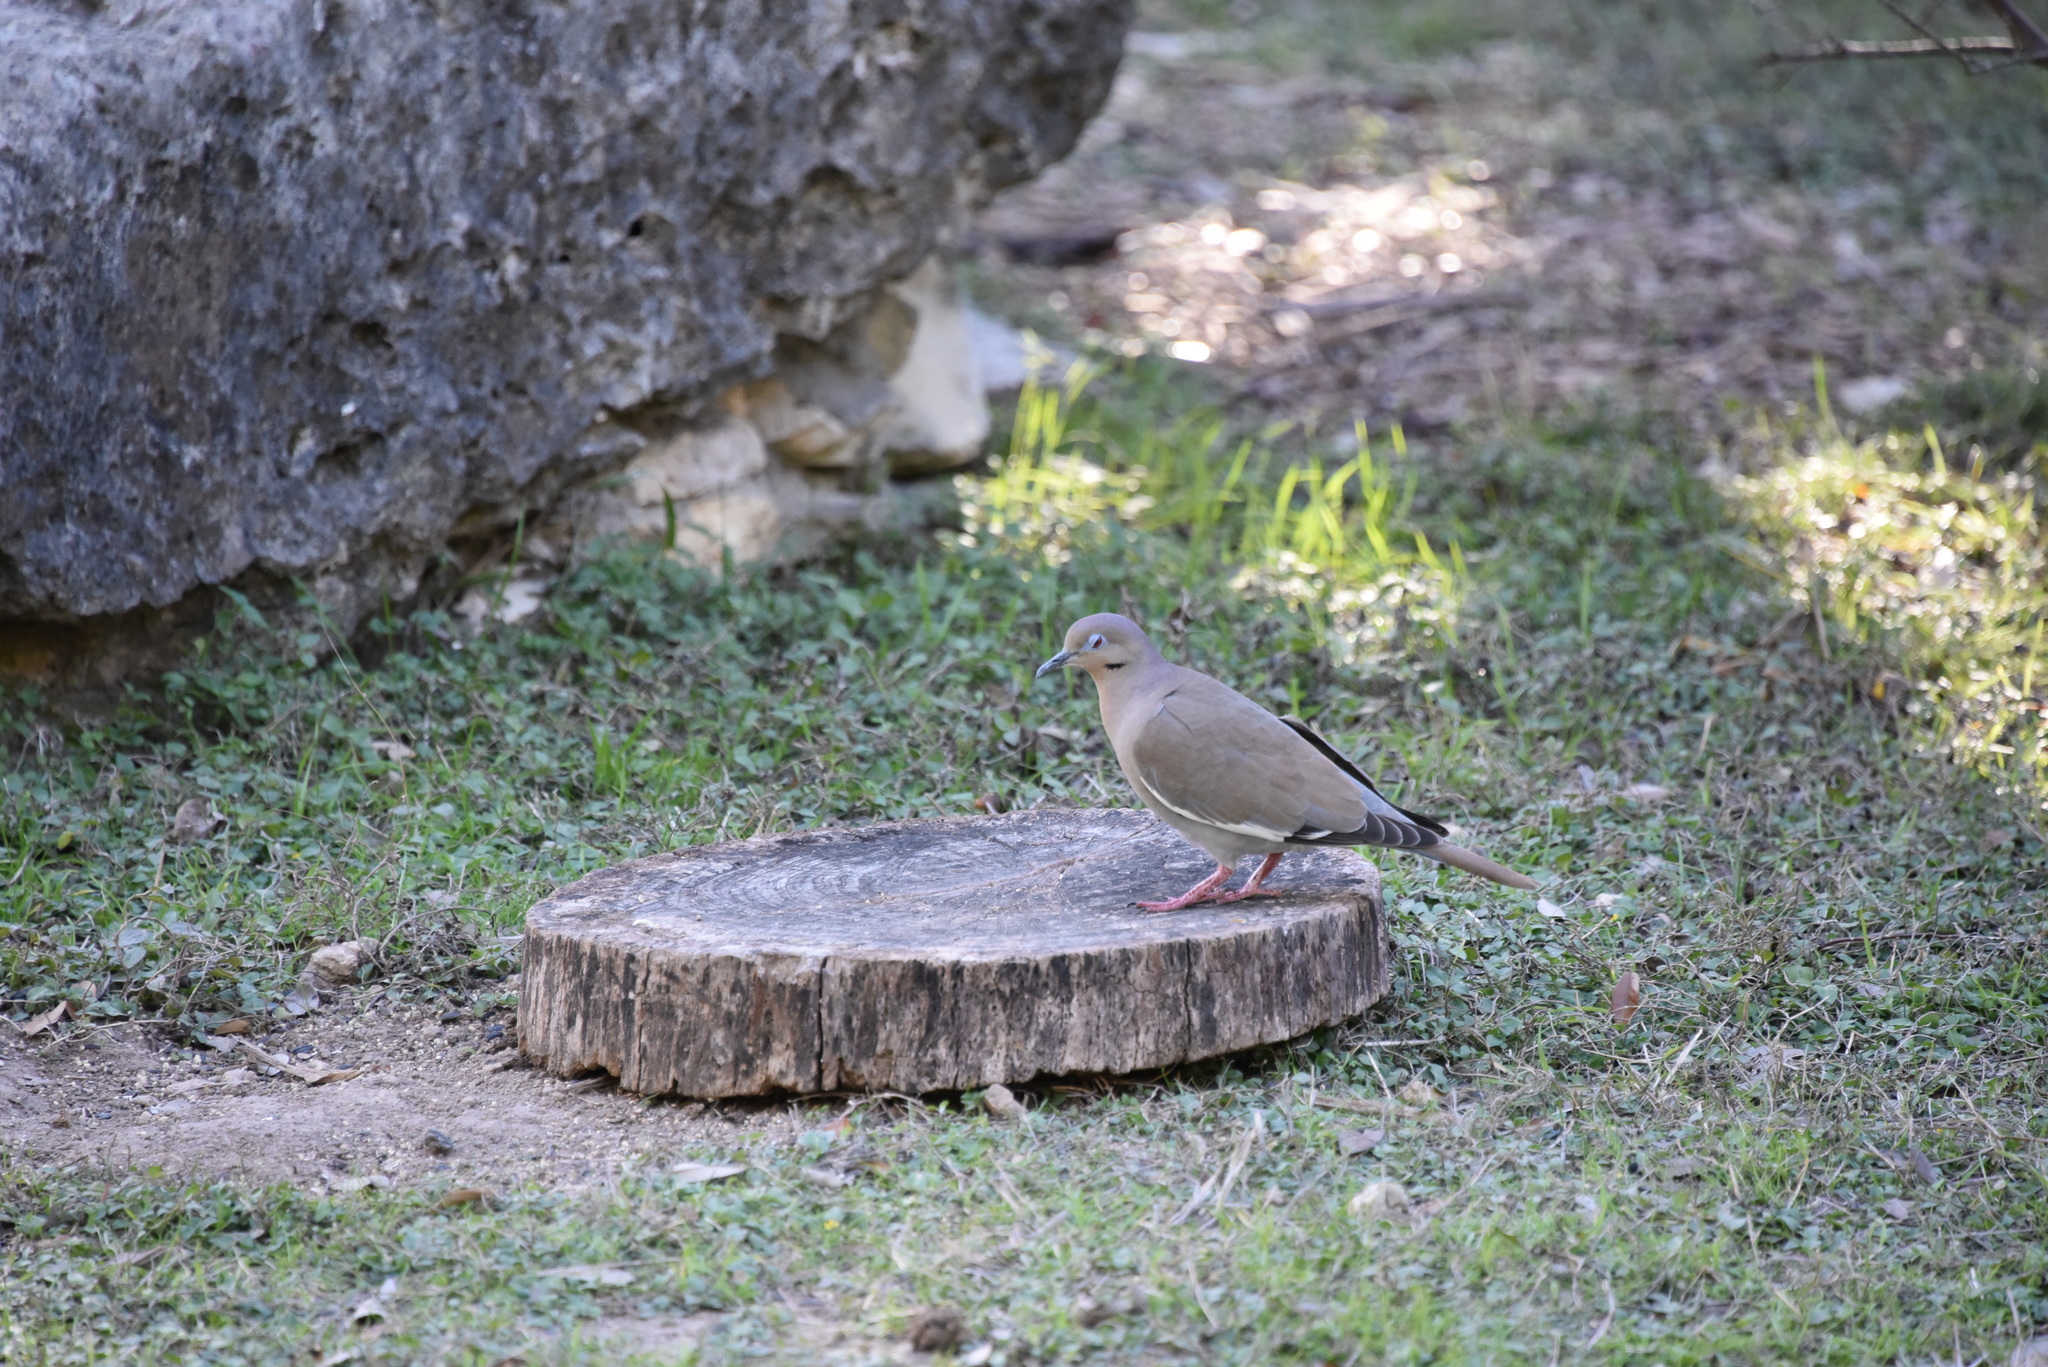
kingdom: Animalia
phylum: Chordata
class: Aves
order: Columbiformes
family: Columbidae
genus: Zenaida
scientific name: Zenaida asiatica
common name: White-winged dove
